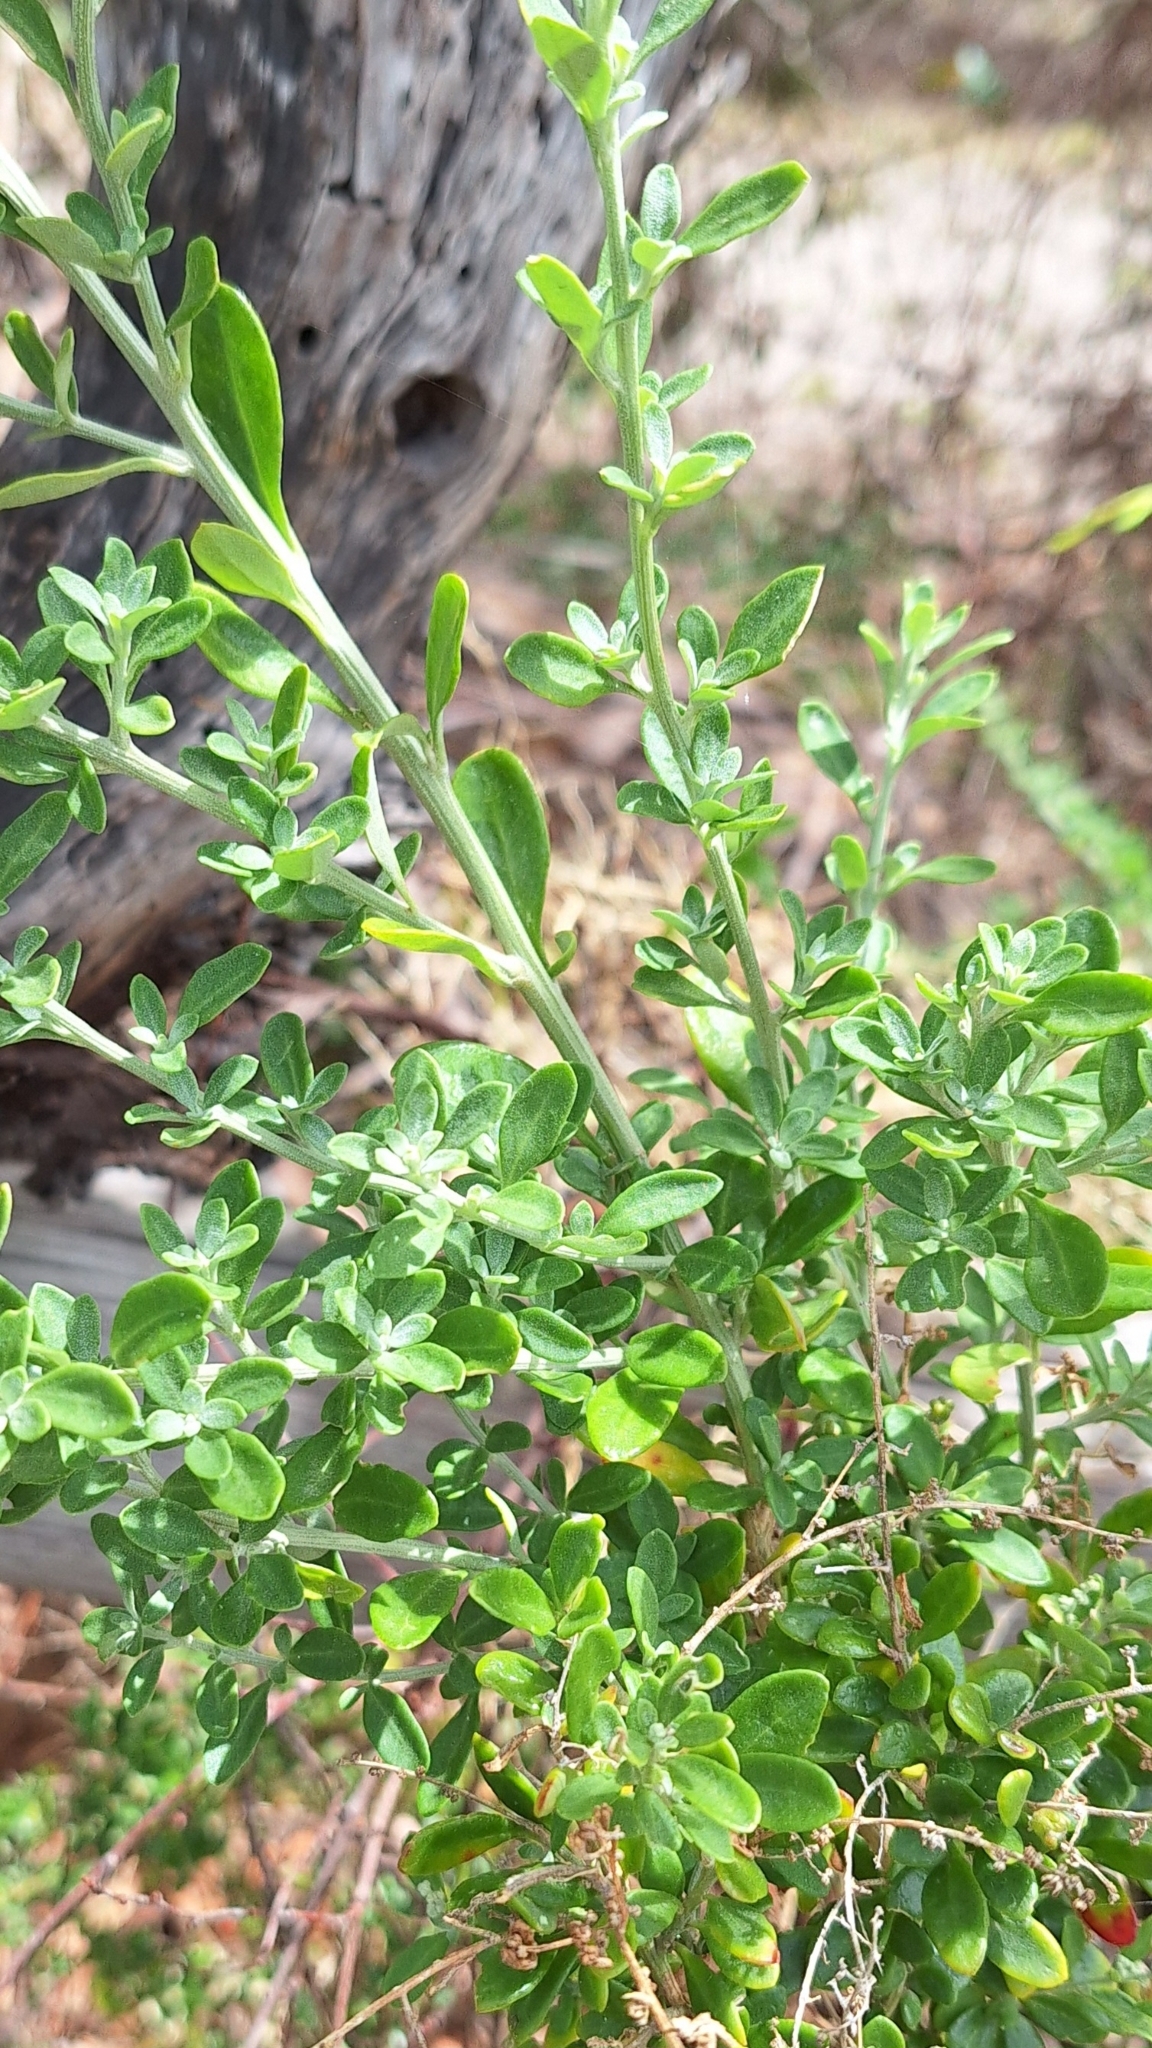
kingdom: Plantae
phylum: Tracheophyta
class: Magnoliopsida
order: Caryophyllales
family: Amaranthaceae
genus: Chenopodium
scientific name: Chenopodium candolleanum
